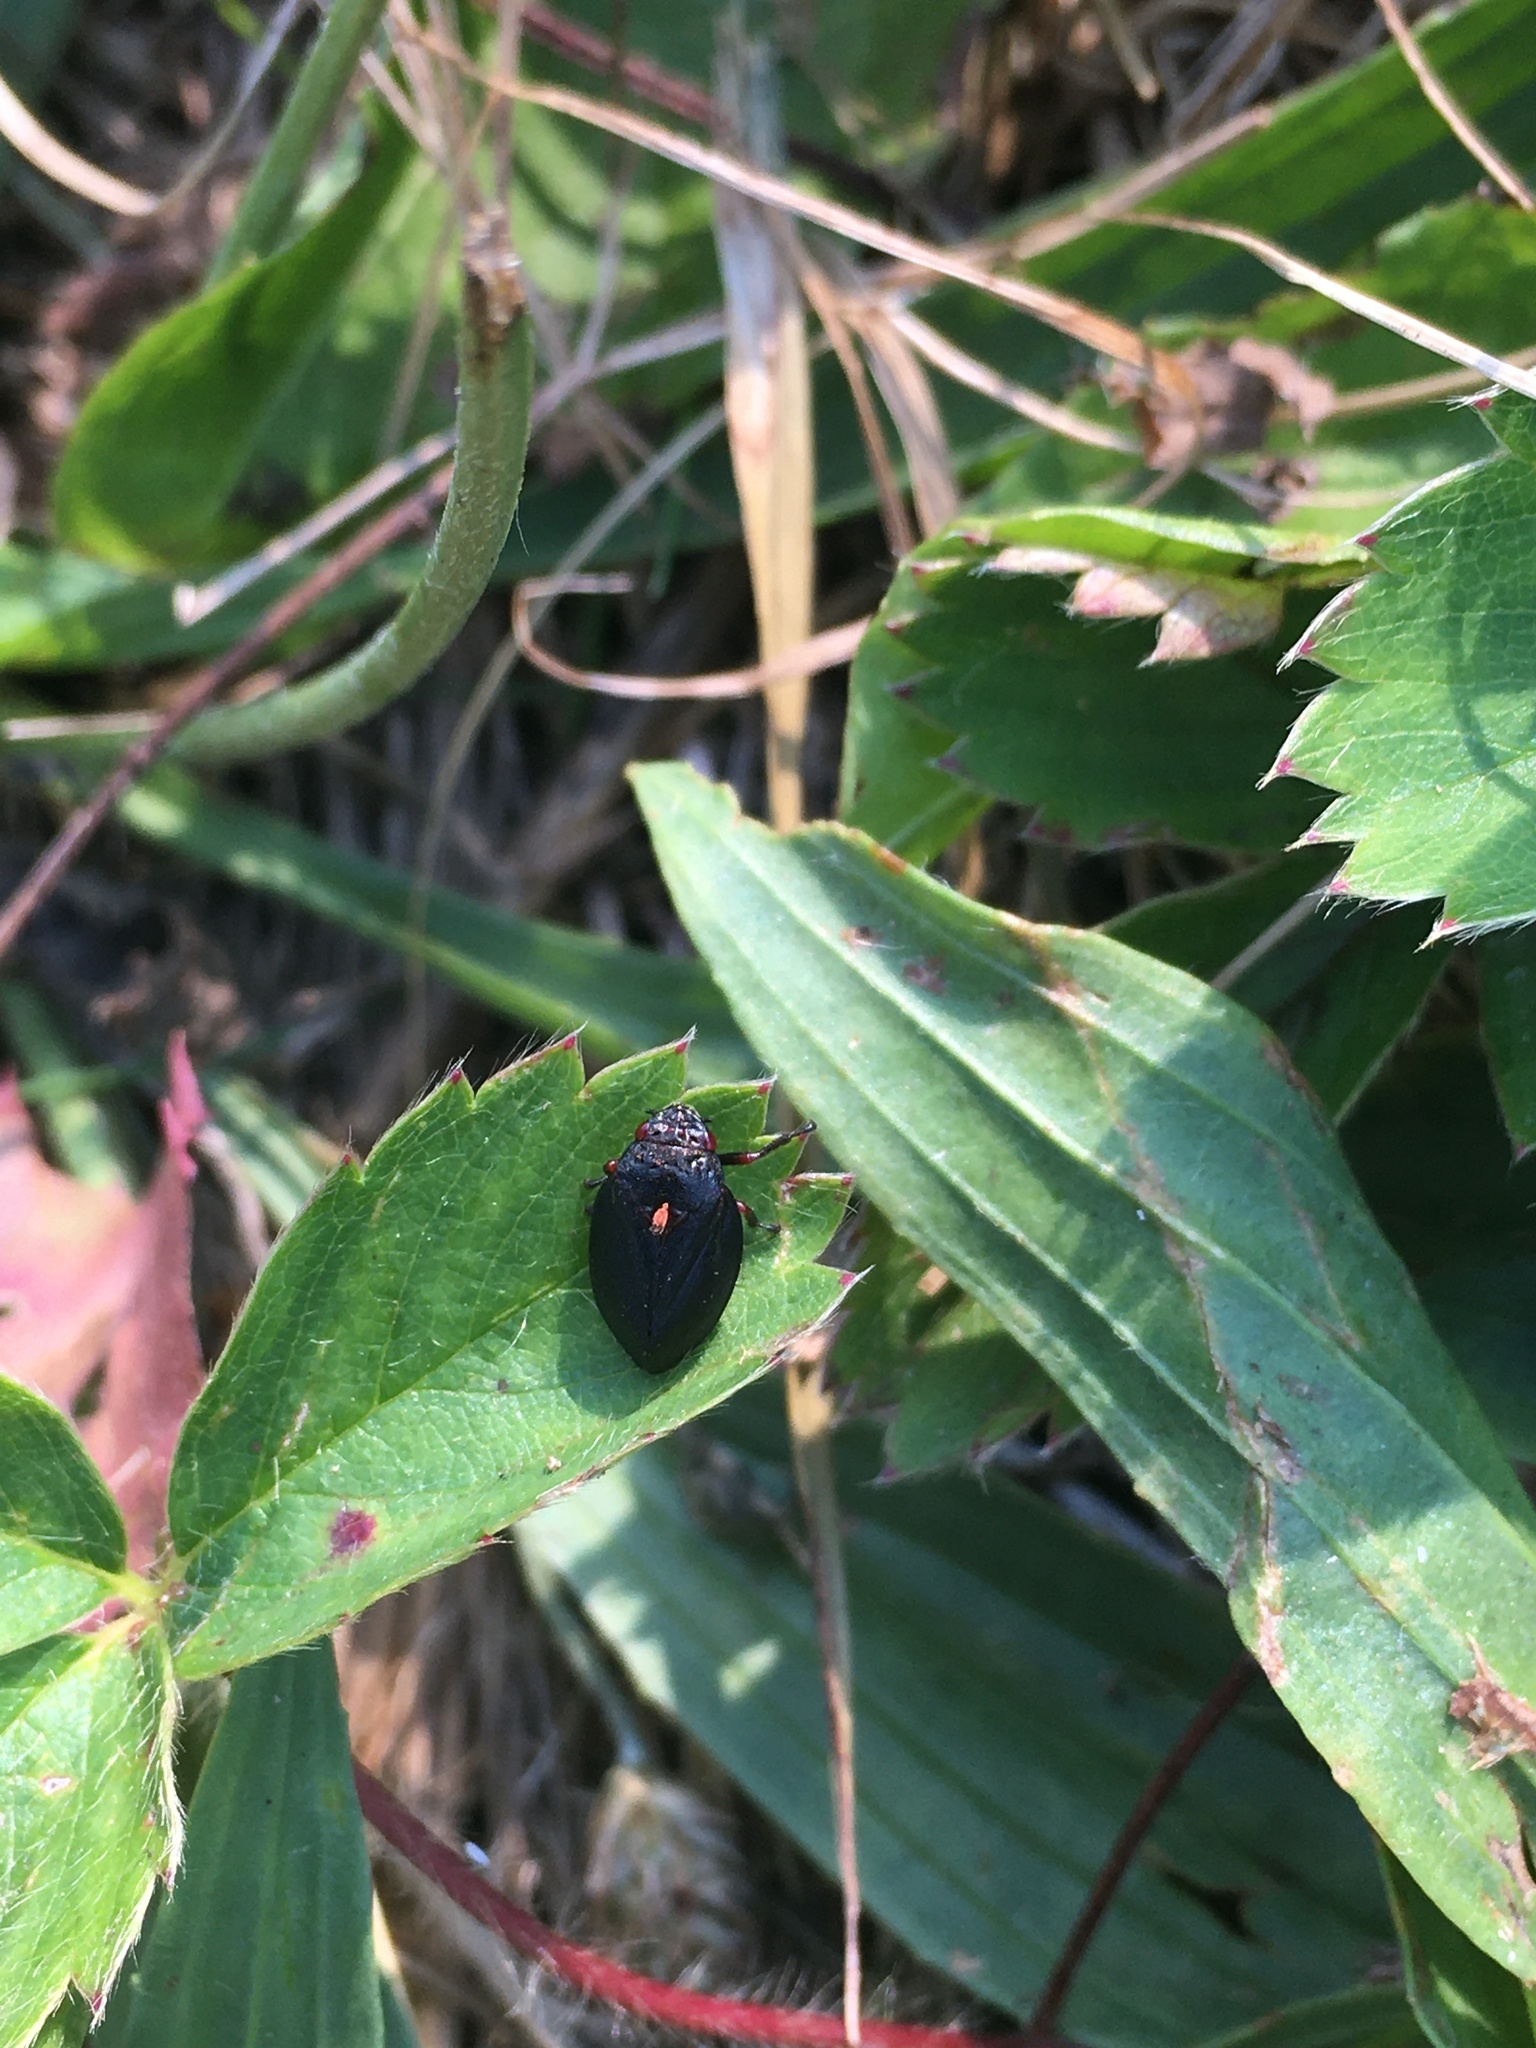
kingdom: Animalia
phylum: Arthropoda
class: Insecta
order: Hemiptera
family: Cercopidae
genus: Prosapia
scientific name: Prosapia ignipectus
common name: Black spittlebug
